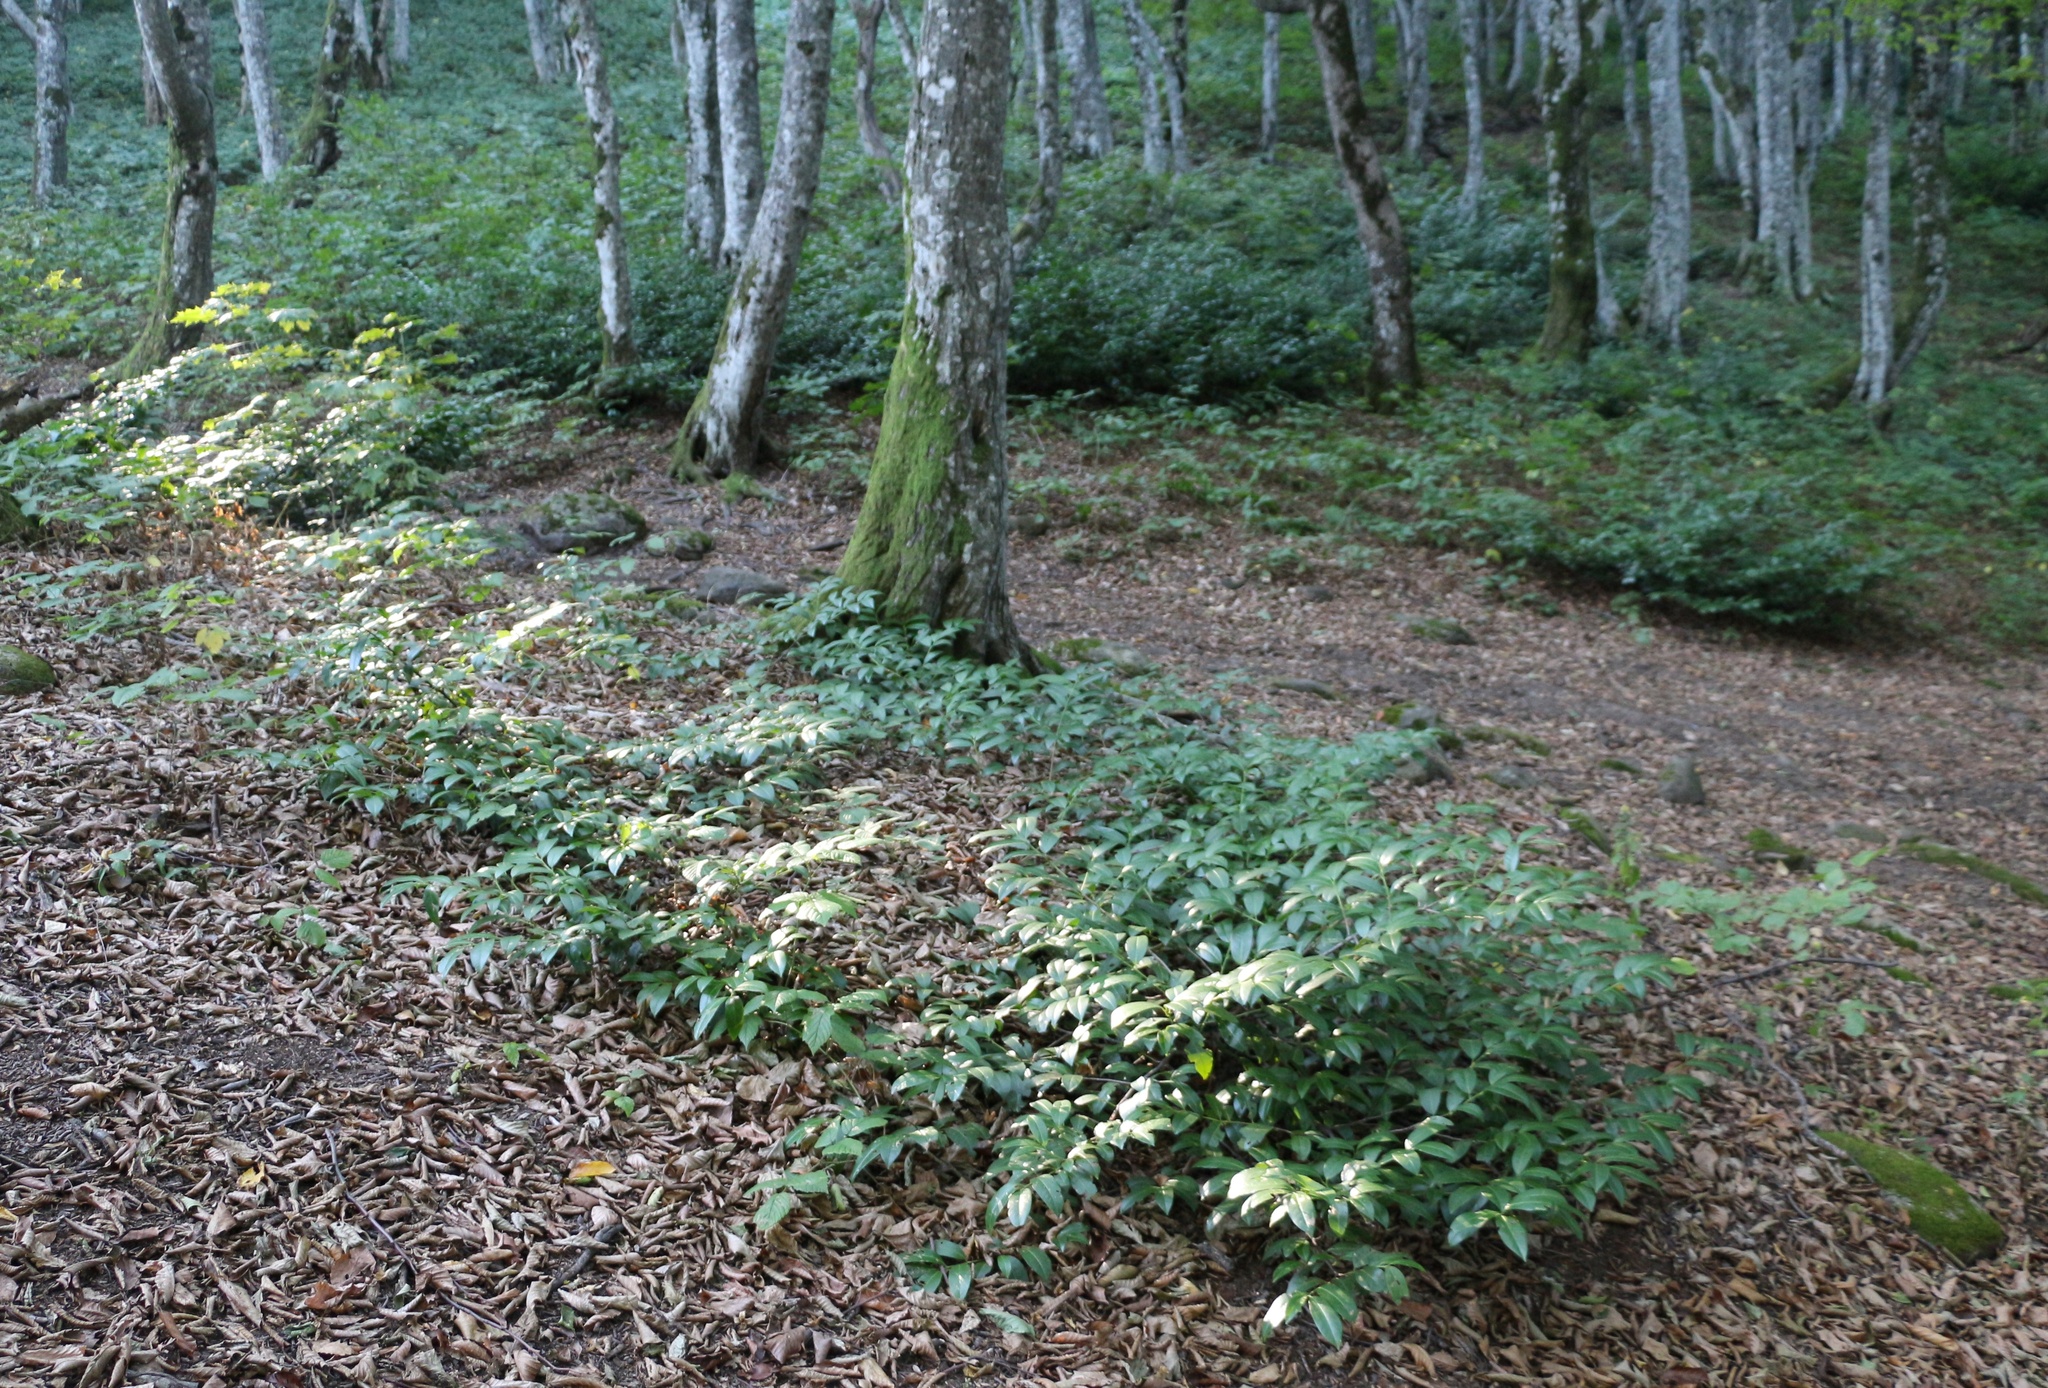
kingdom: Plantae
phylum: Tracheophyta
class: Magnoliopsida
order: Rosales
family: Rosaceae
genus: Prunus
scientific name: Prunus laurocerasus
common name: Cherry laurel
